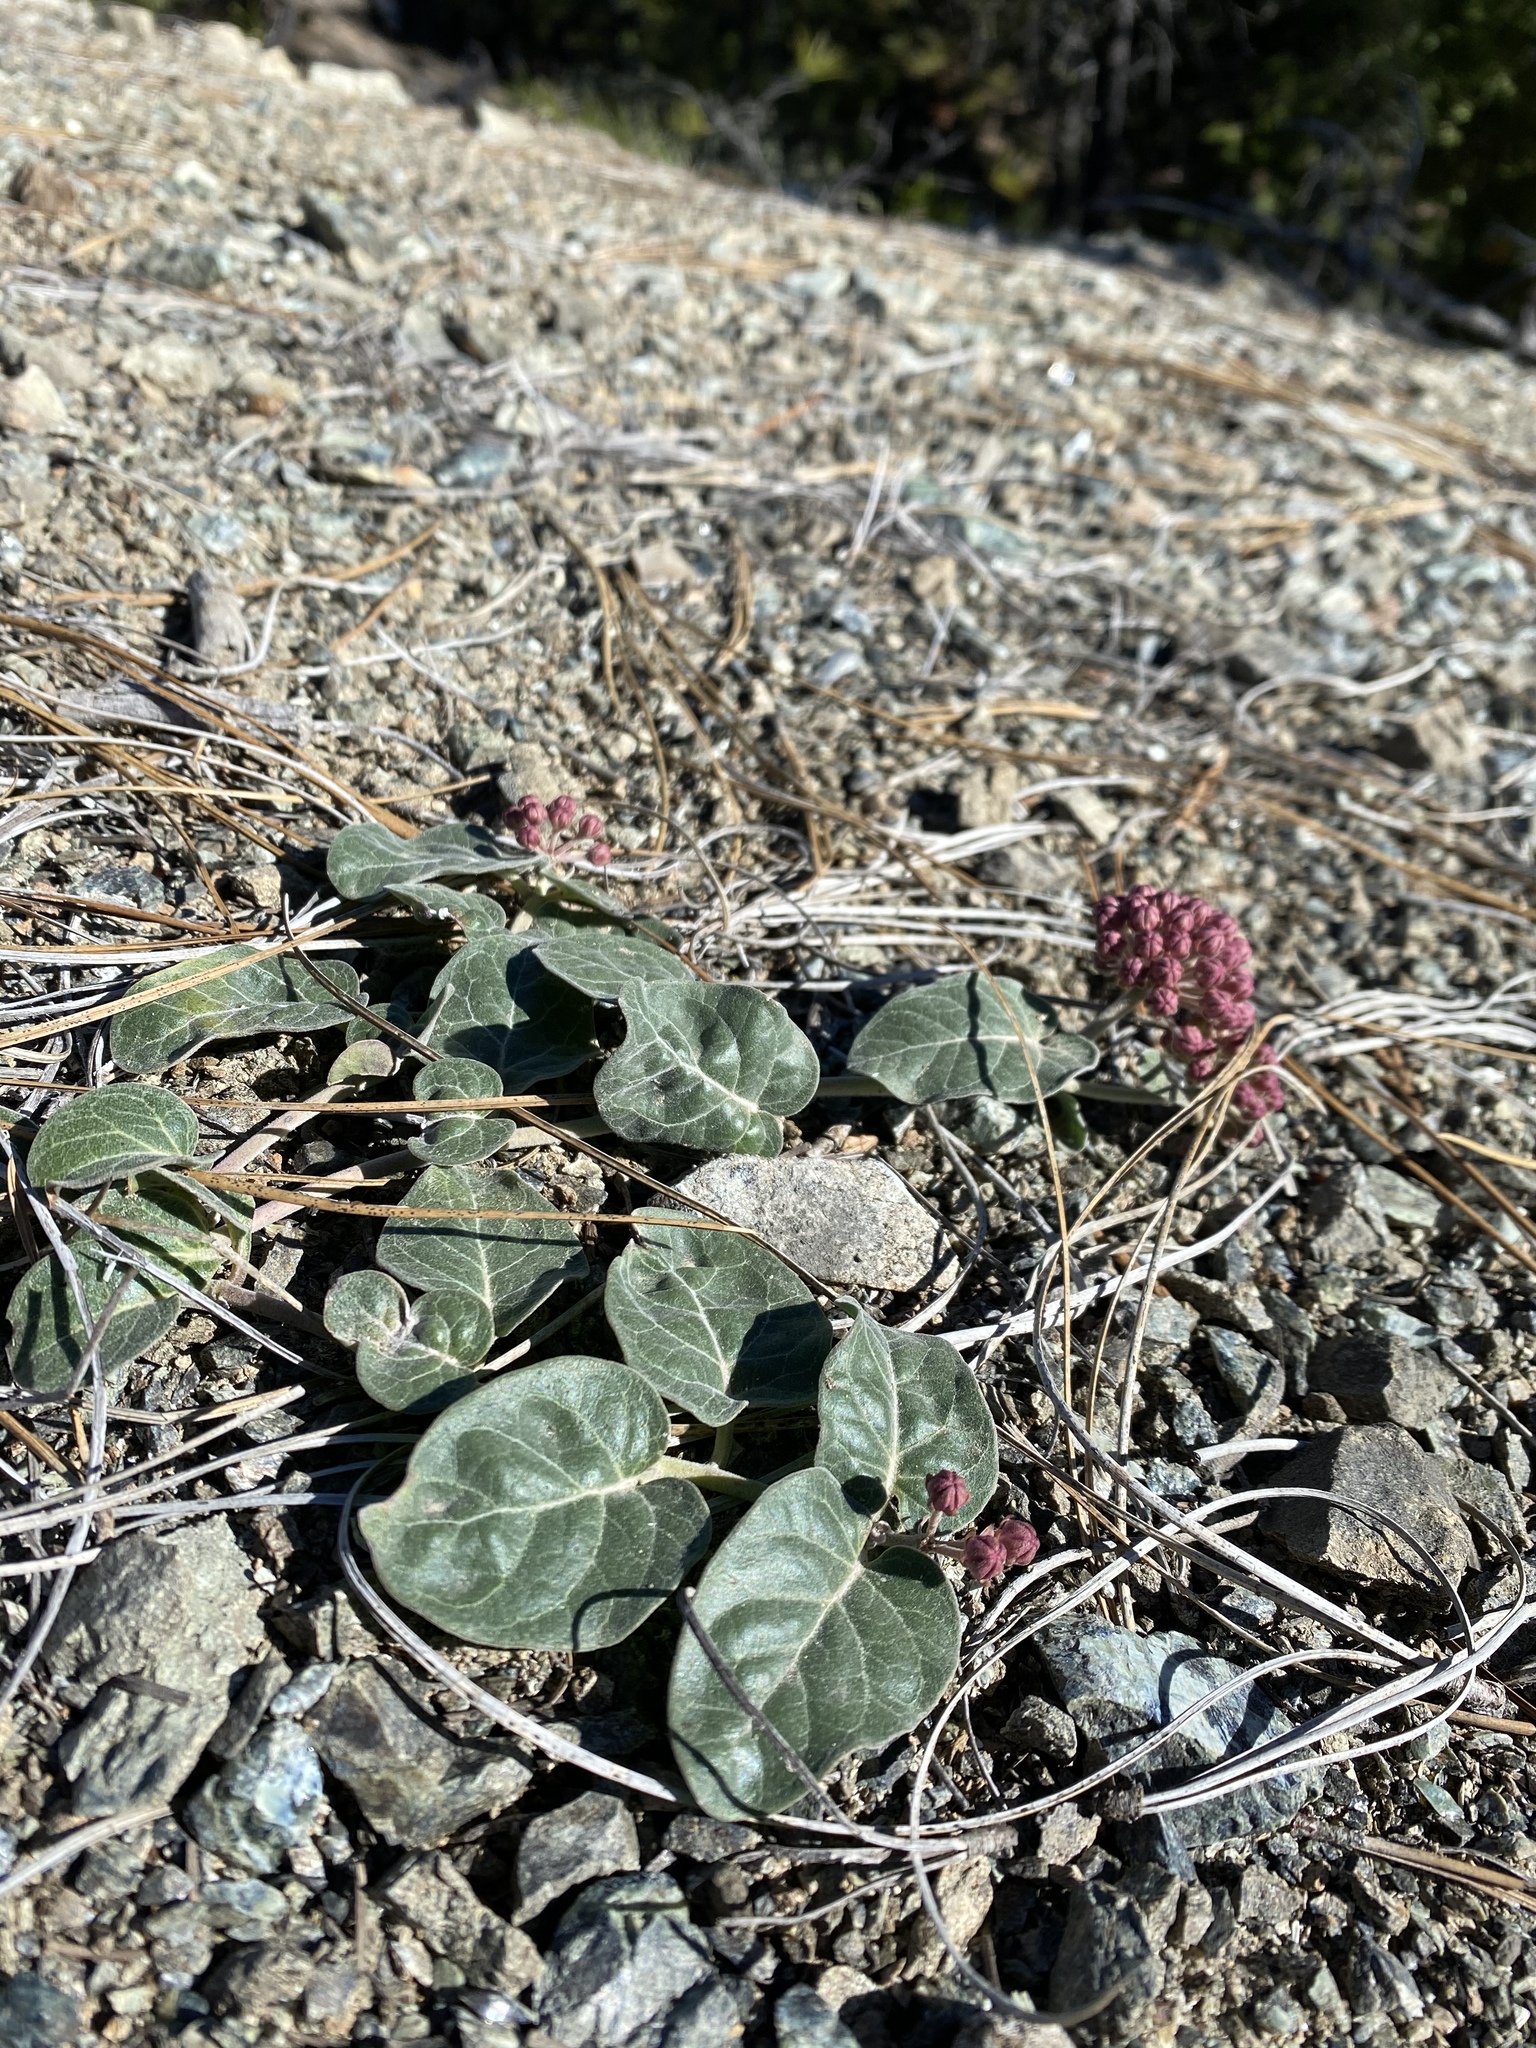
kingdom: Plantae
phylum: Tracheophyta
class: Magnoliopsida
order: Gentianales
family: Apocynaceae
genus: Asclepias
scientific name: Asclepias solanoana
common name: Serpentine milkweed
